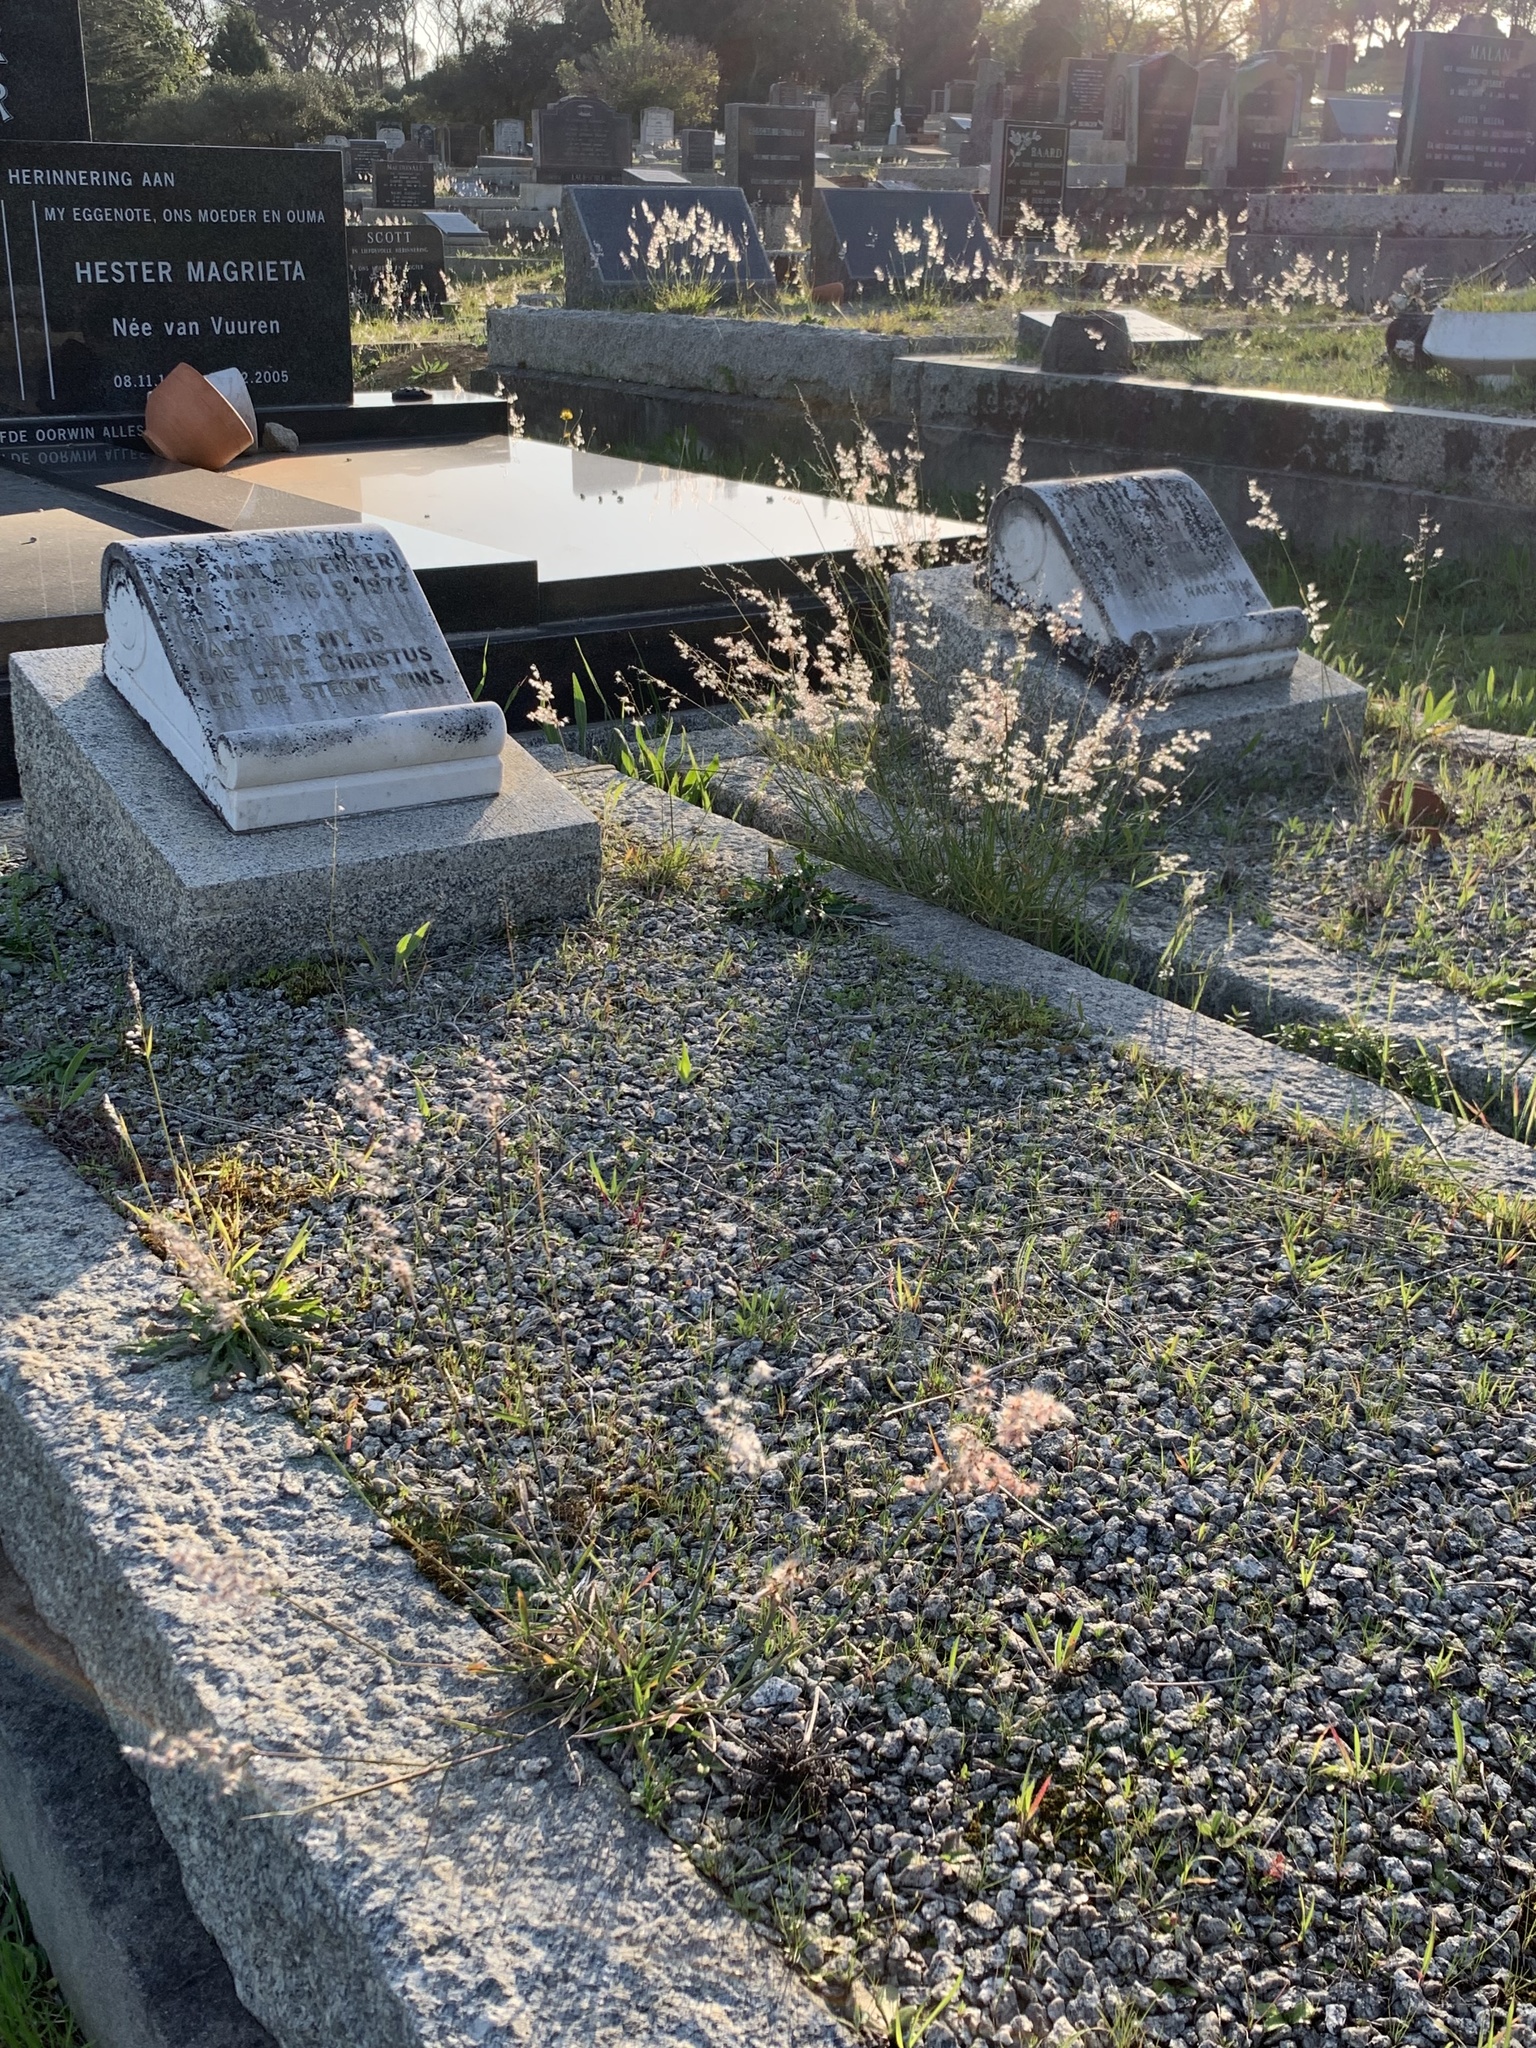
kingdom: Plantae
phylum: Tracheophyta
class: Liliopsida
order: Poales
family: Poaceae
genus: Melinis
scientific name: Melinis repens
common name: Rose natal grass
